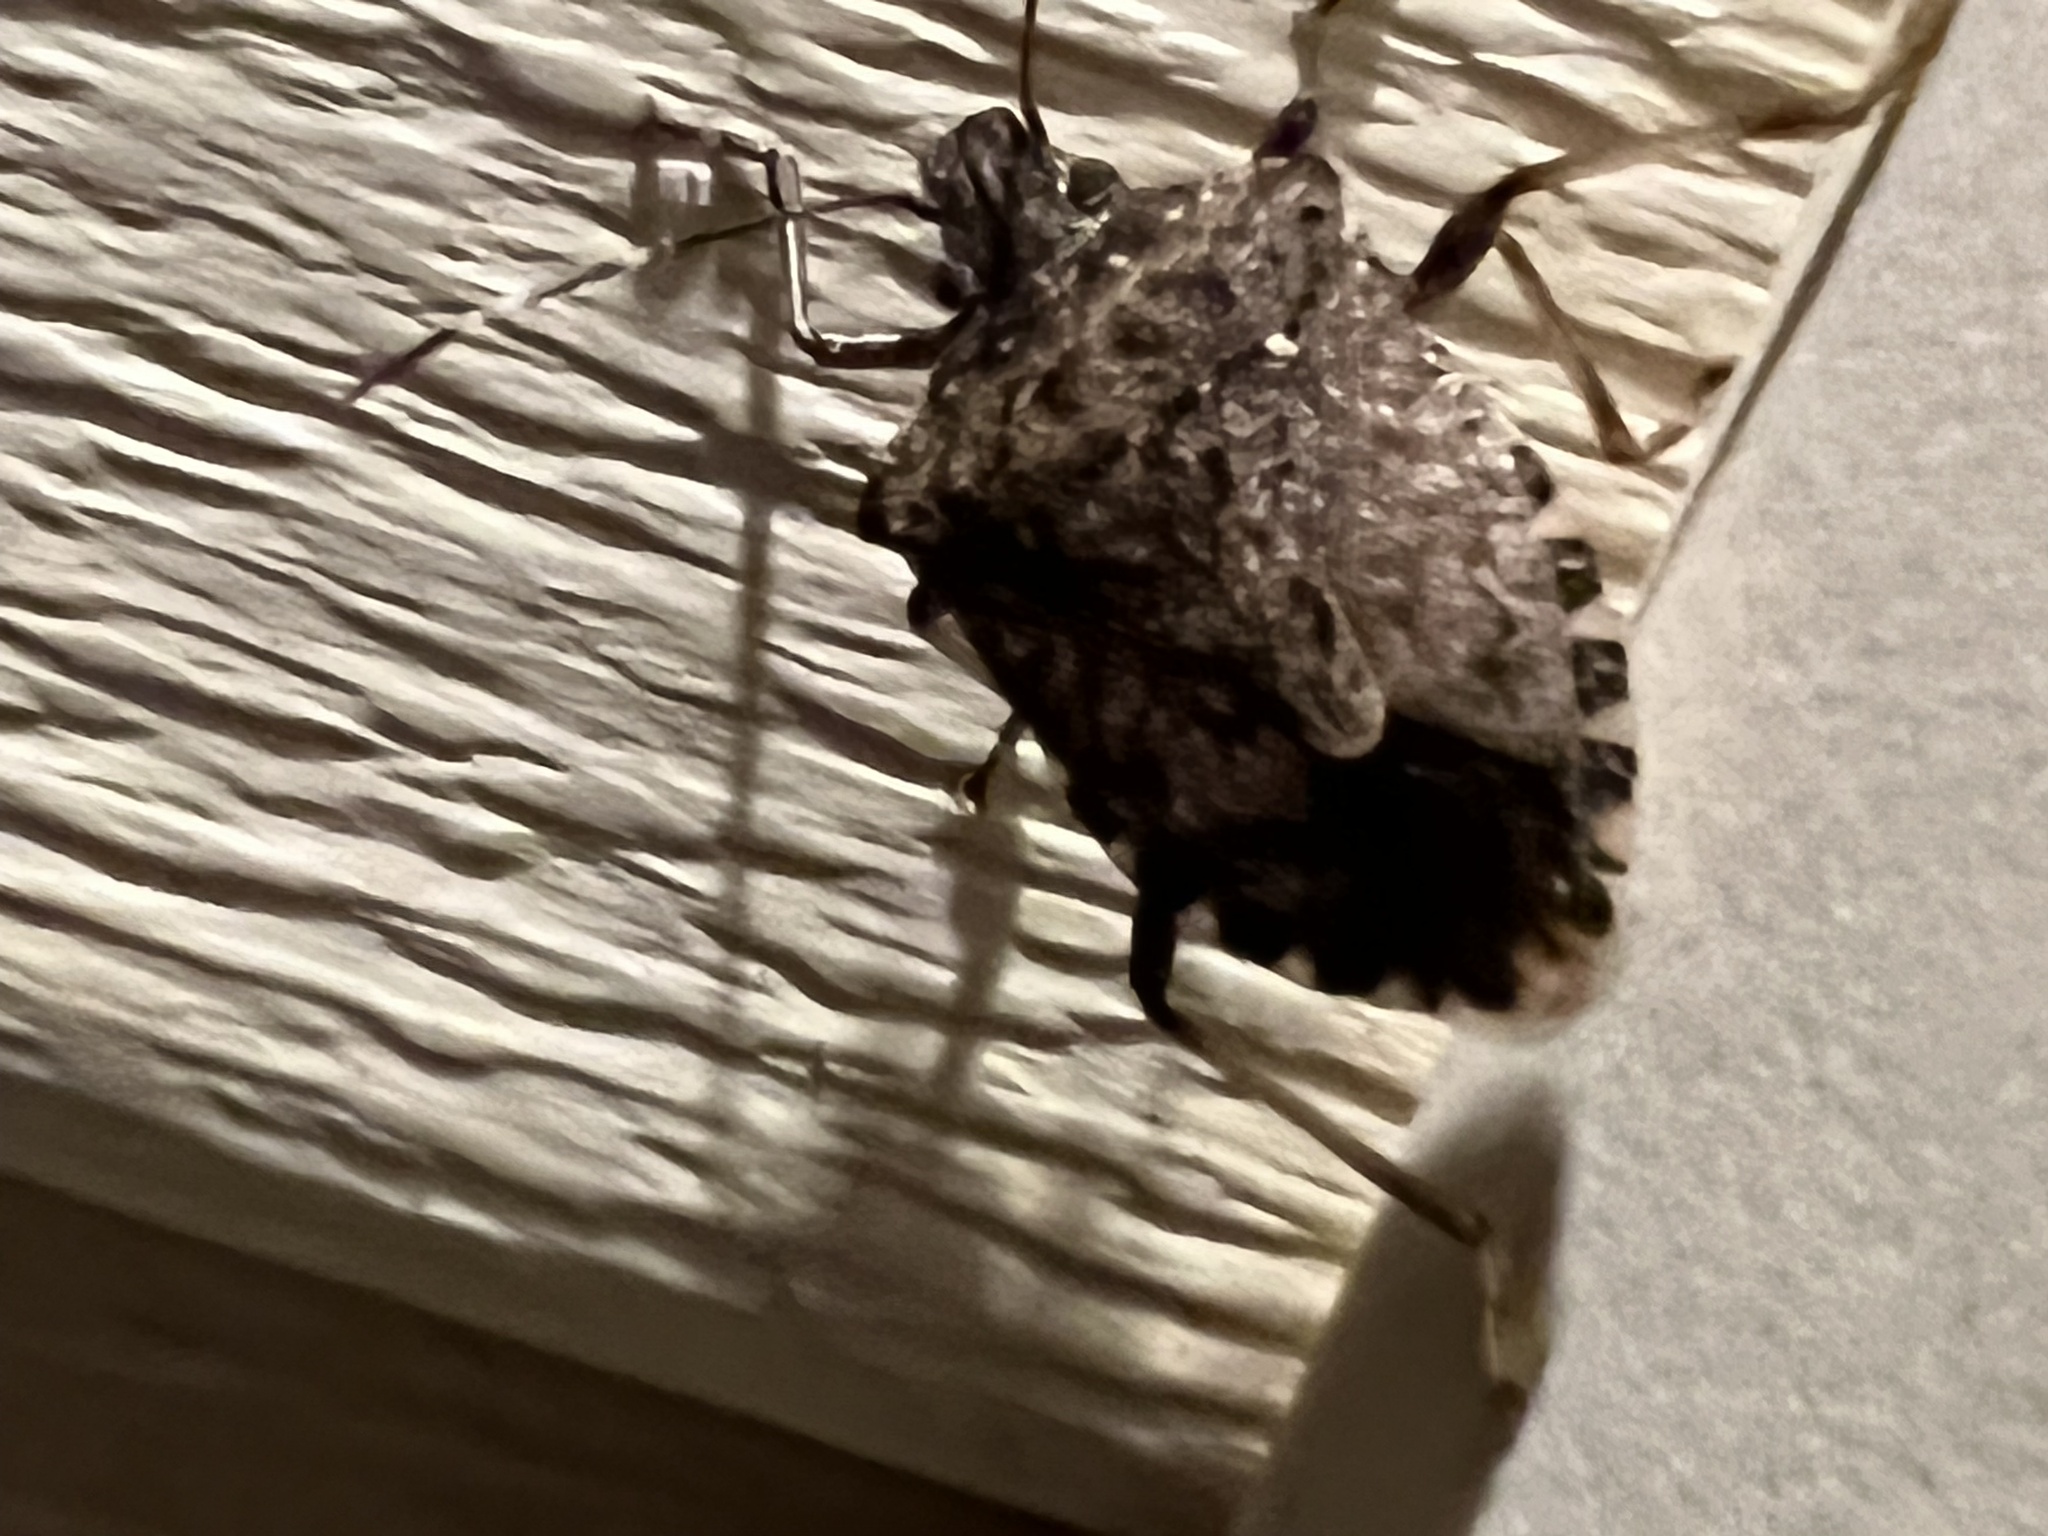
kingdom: Animalia
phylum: Arthropoda
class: Insecta
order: Hemiptera
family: Pentatomidae
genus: Halyomorpha
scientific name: Halyomorpha halys
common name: Brown marmorated stink bug
